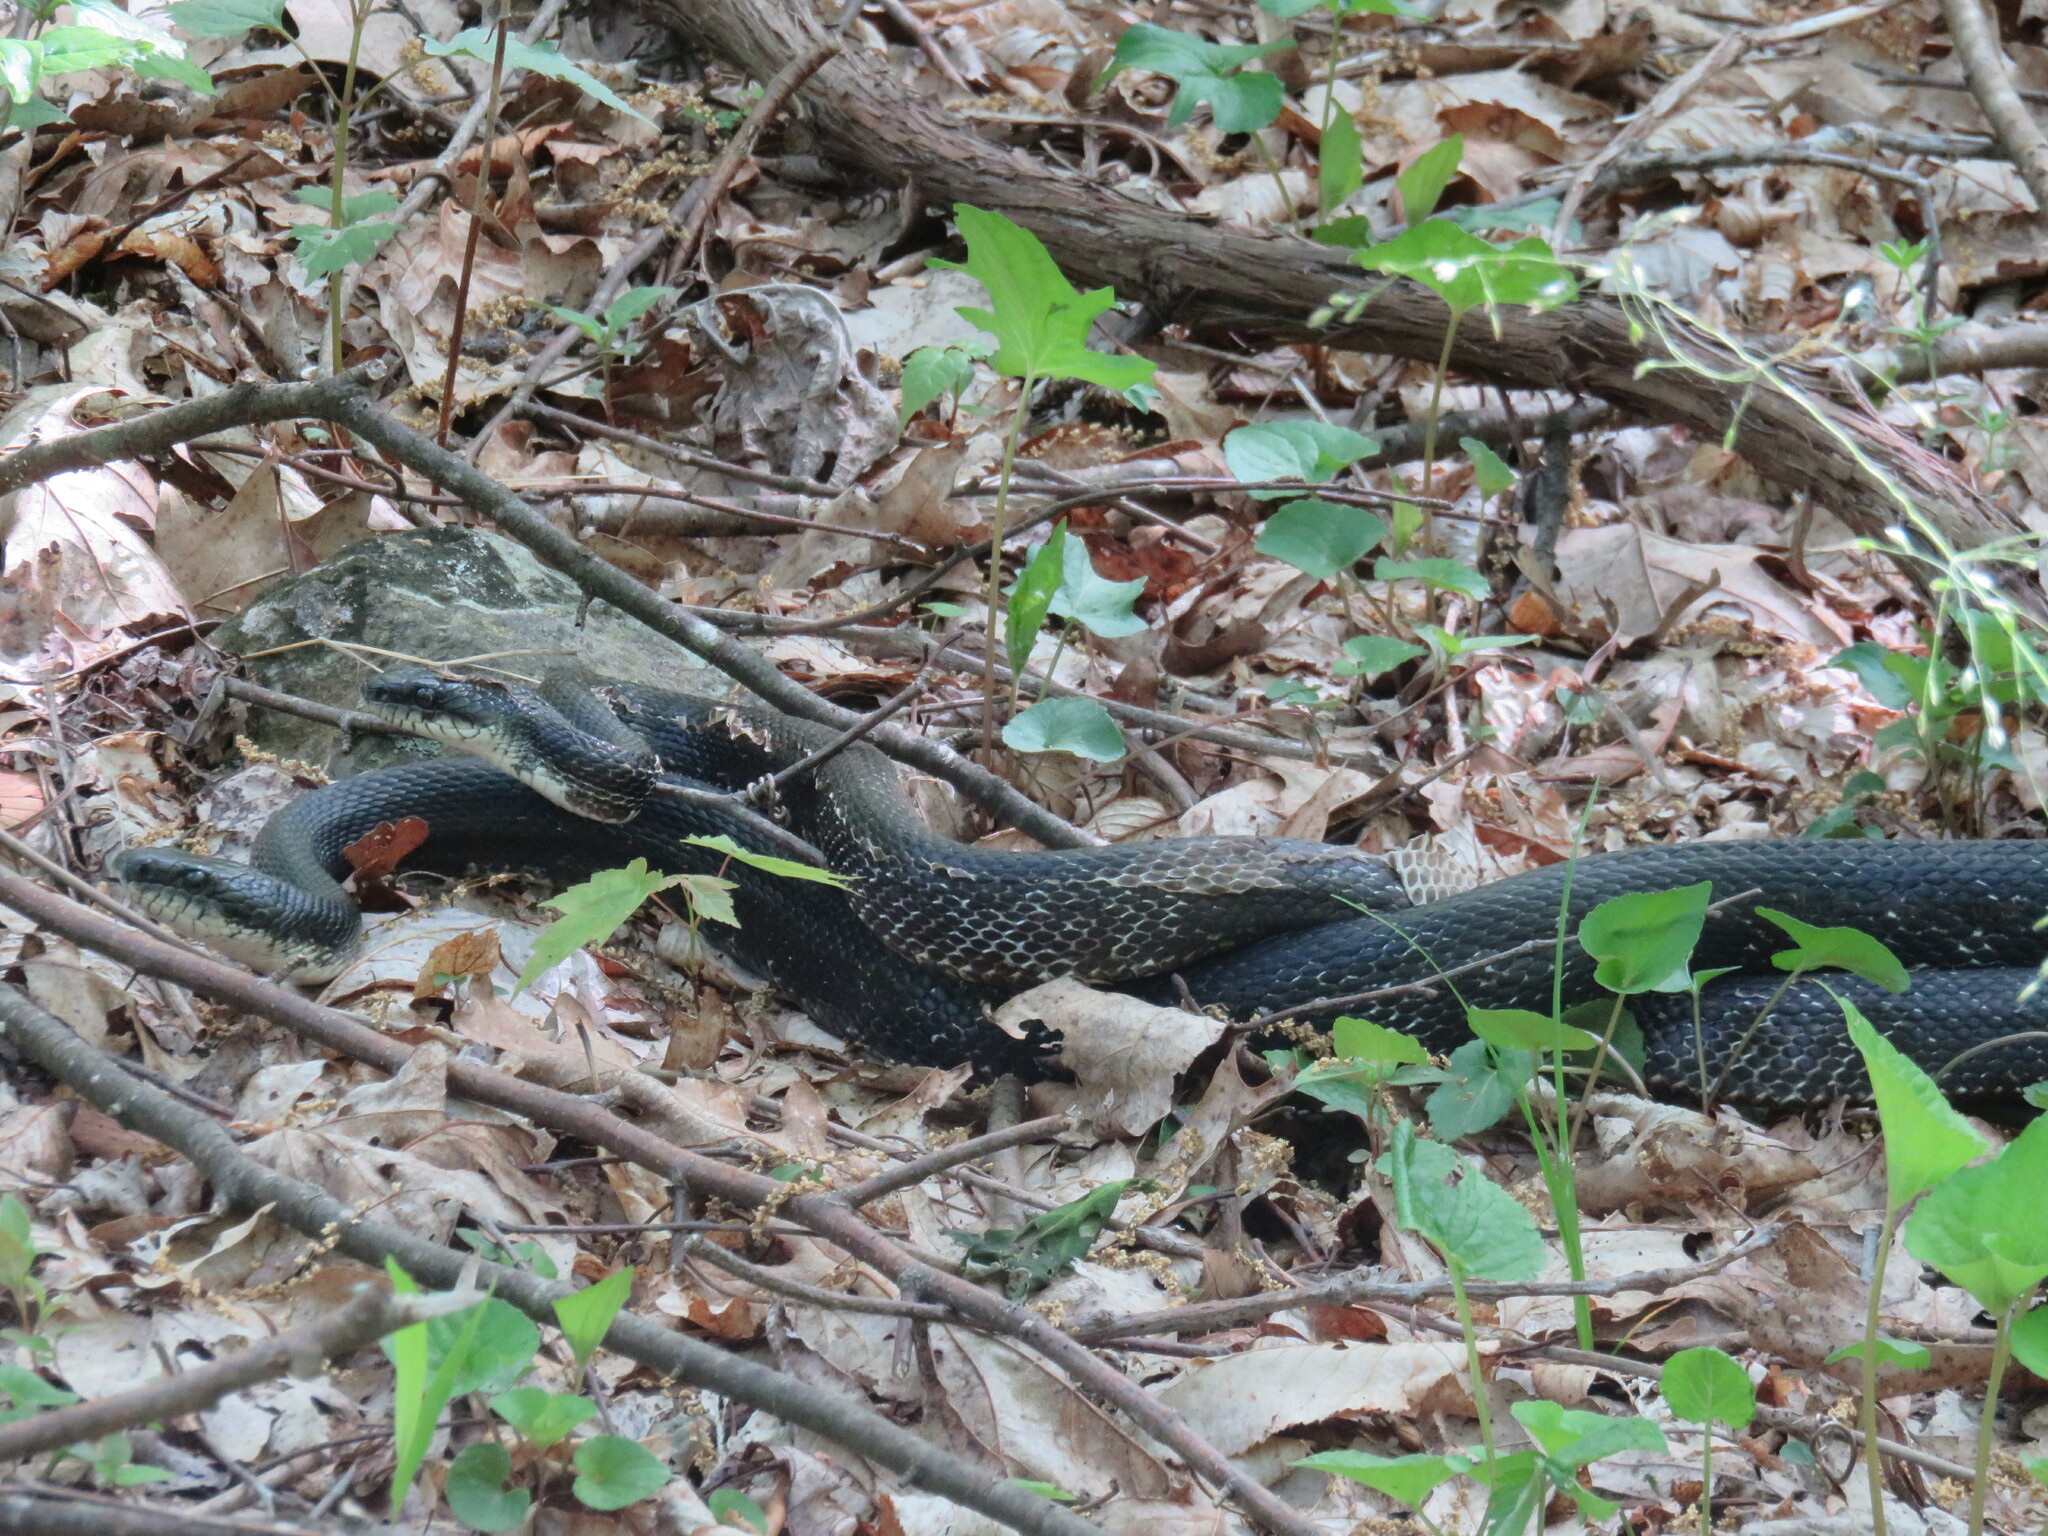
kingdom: Animalia
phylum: Chordata
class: Squamata
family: Colubridae
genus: Pantherophis
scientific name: Pantherophis alleghaniensis
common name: Eastern rat snake
